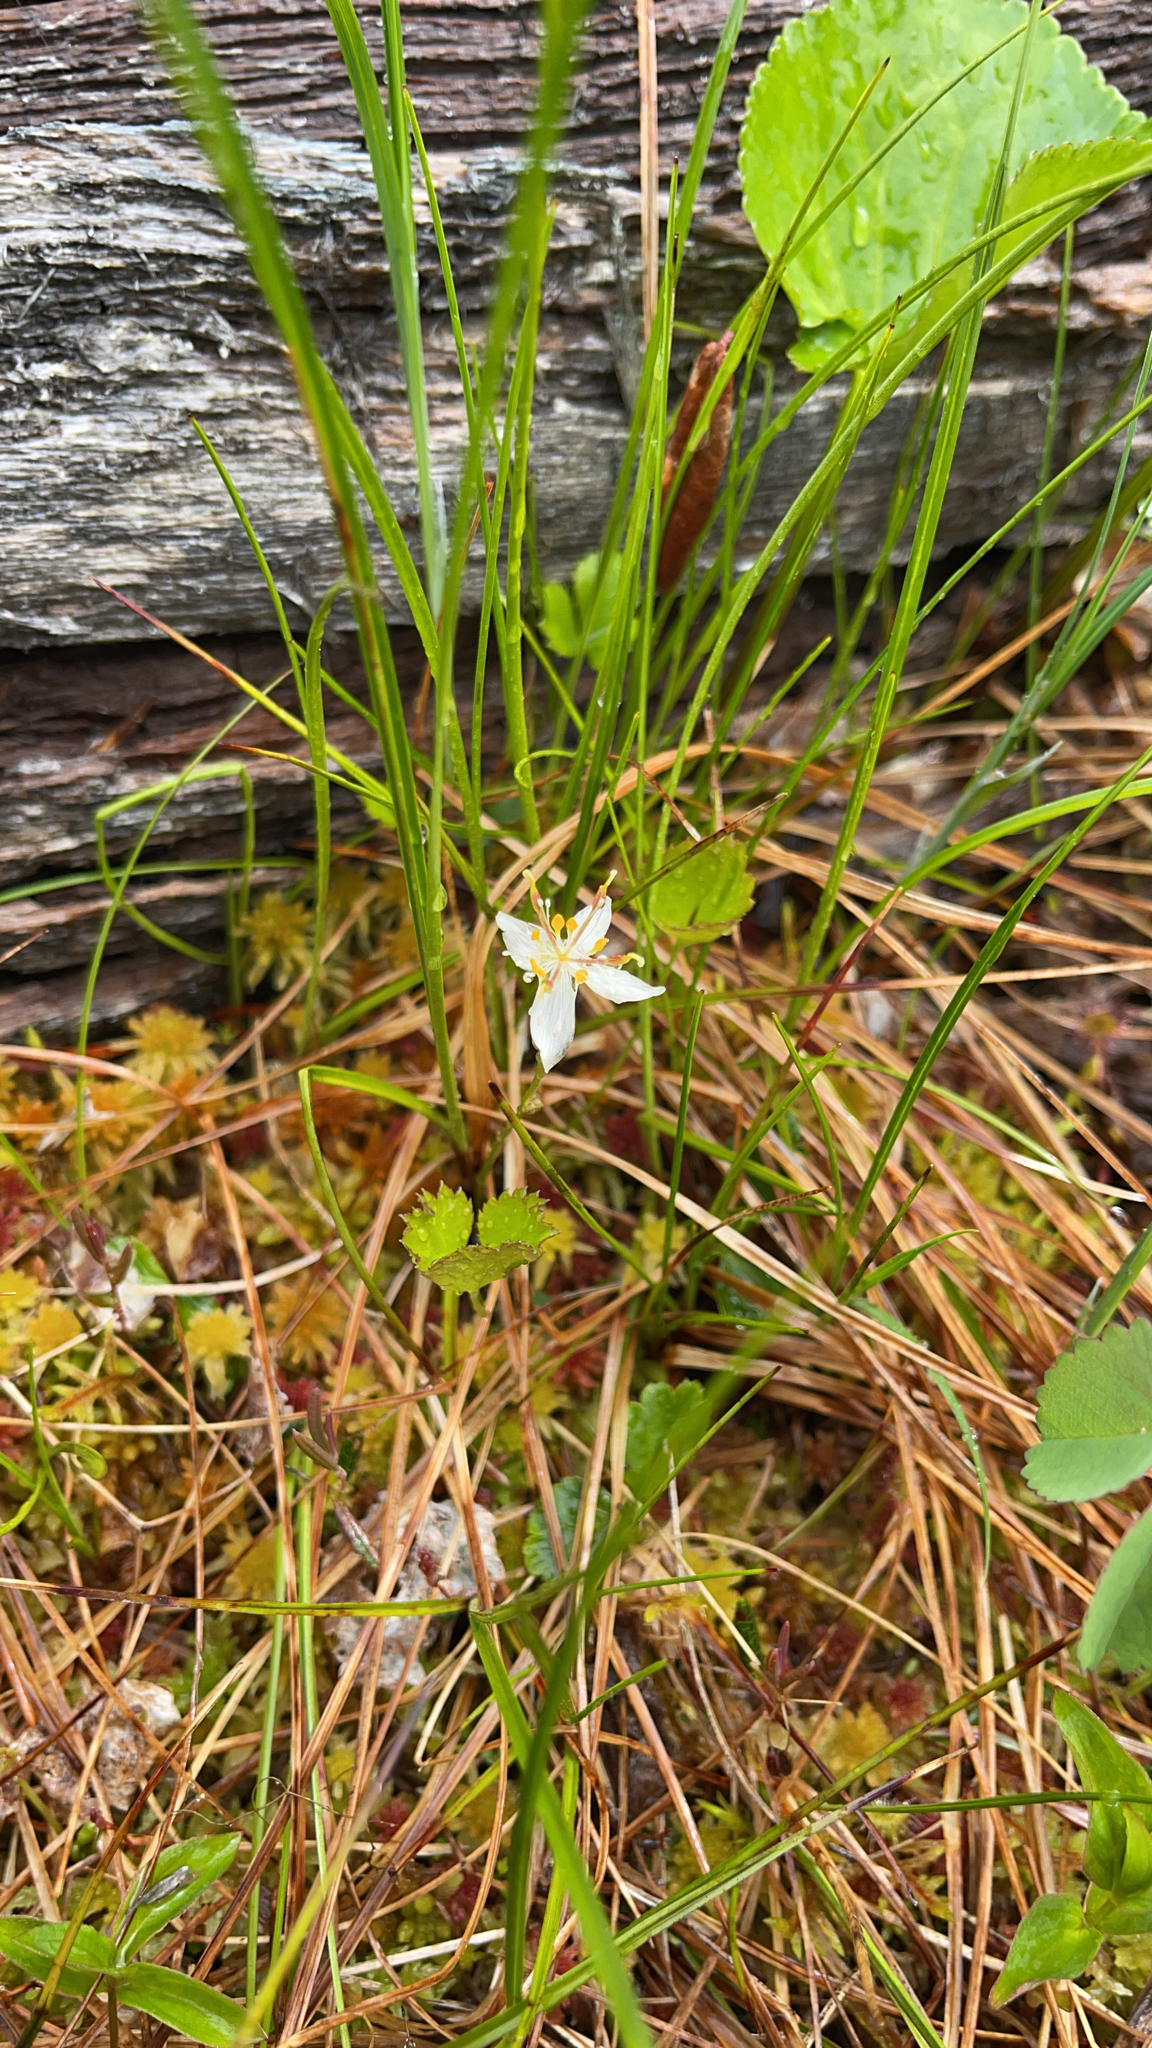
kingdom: Plantae
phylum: Tracheophyta
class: Magnoliopsida
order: Ranunculales
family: Ranunculaceae
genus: Coptis
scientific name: Coptis trifolia
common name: Canker-root
